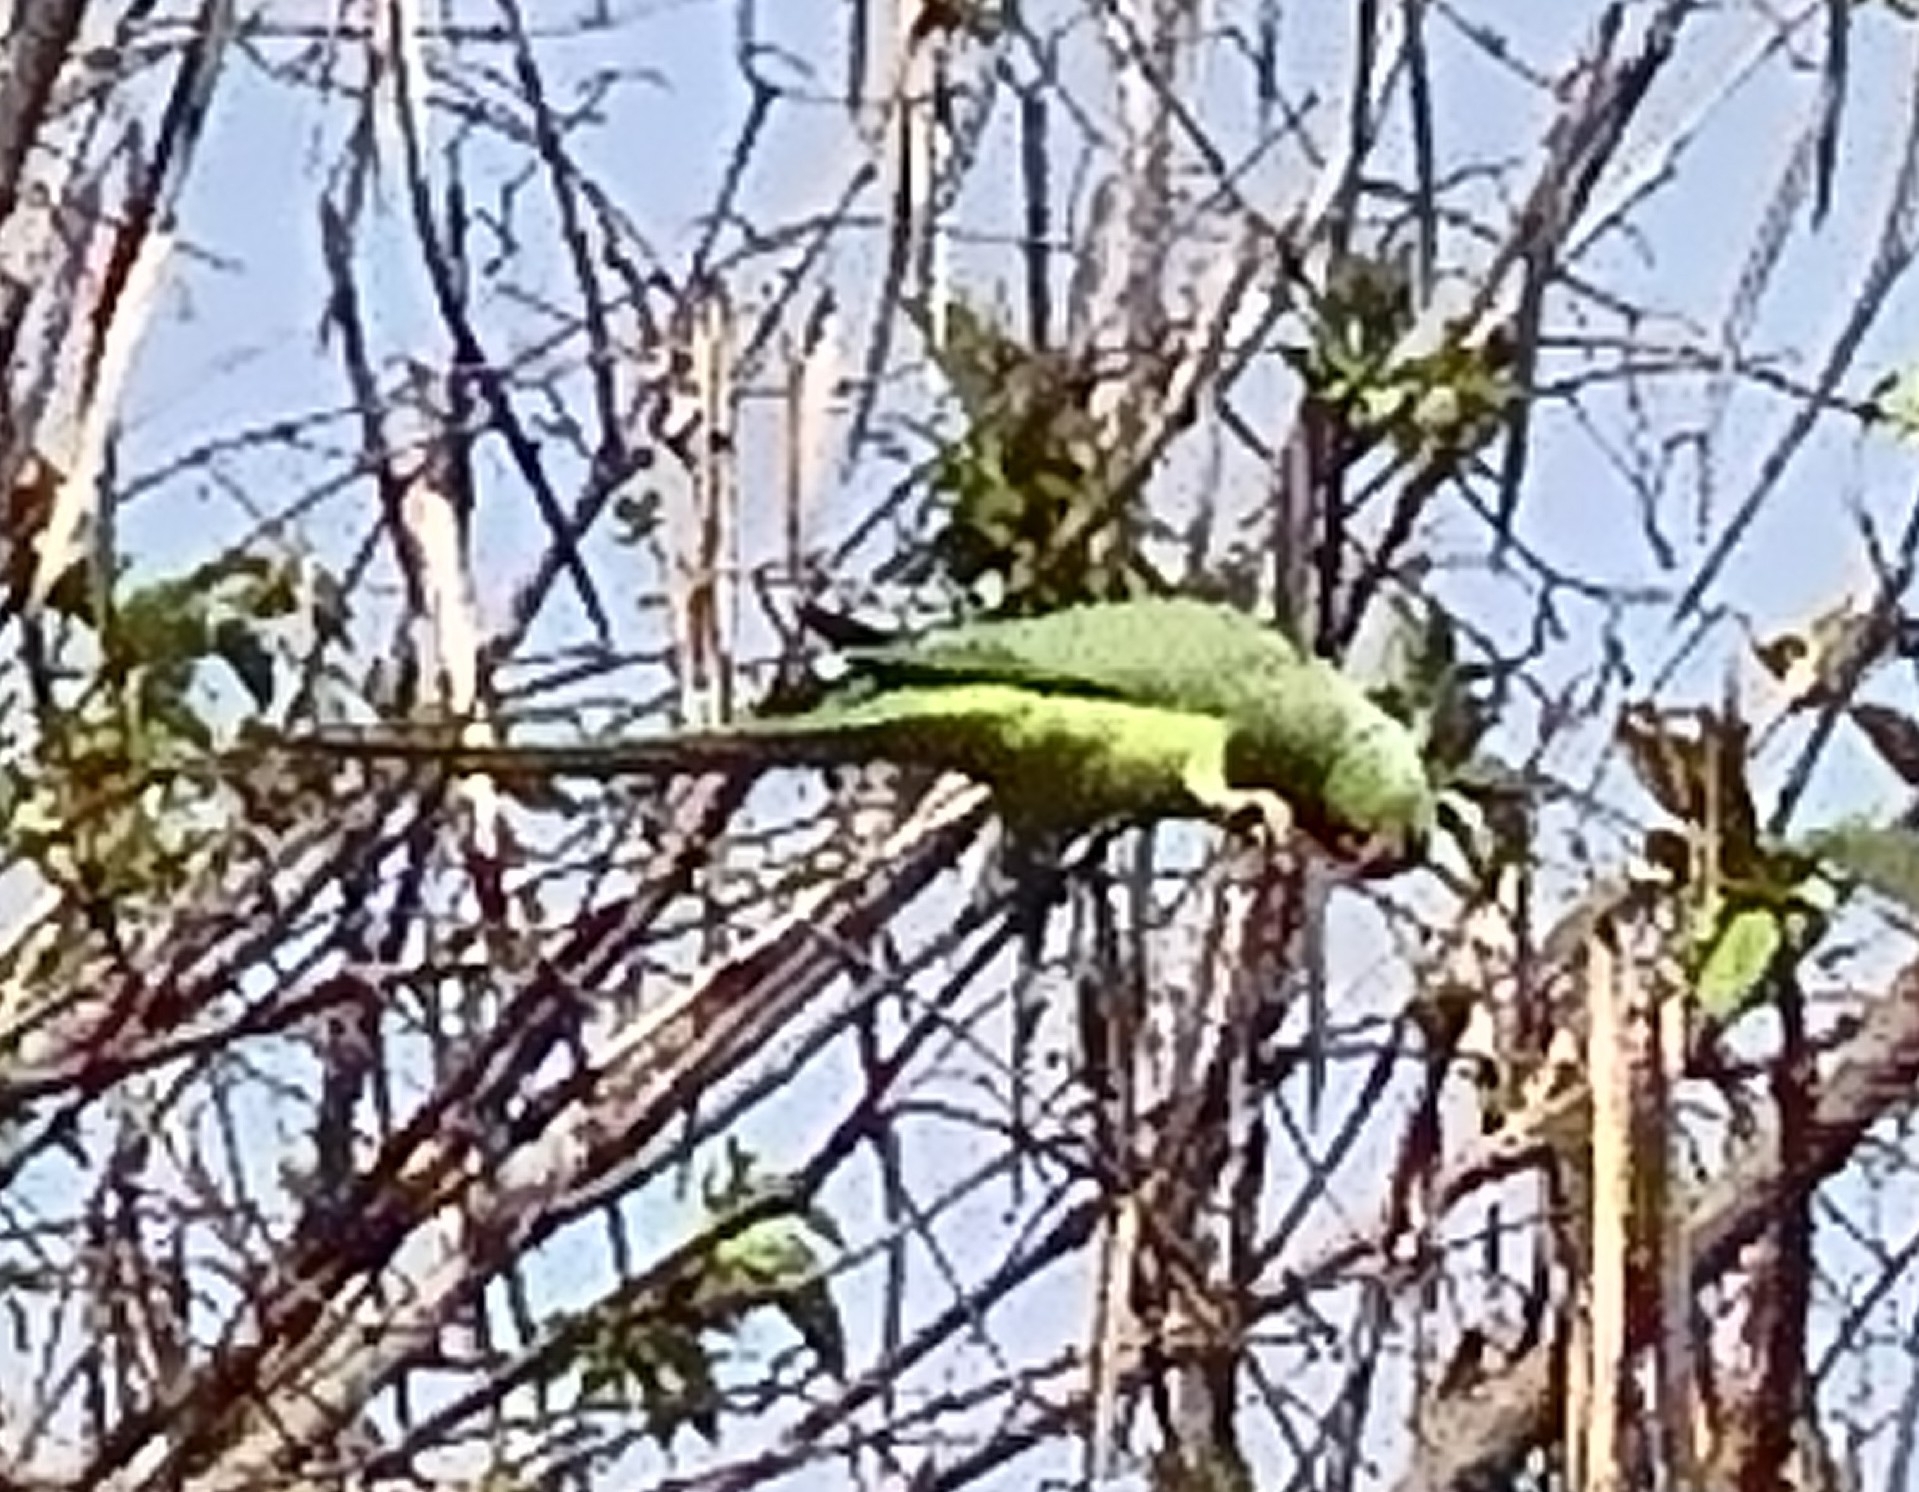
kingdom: Animalia
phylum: Chordata
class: Aves
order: Psittaciformes
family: Psittacidae
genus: Psittacula
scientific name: Psittacula krameri
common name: Rose-ringed parakeet
